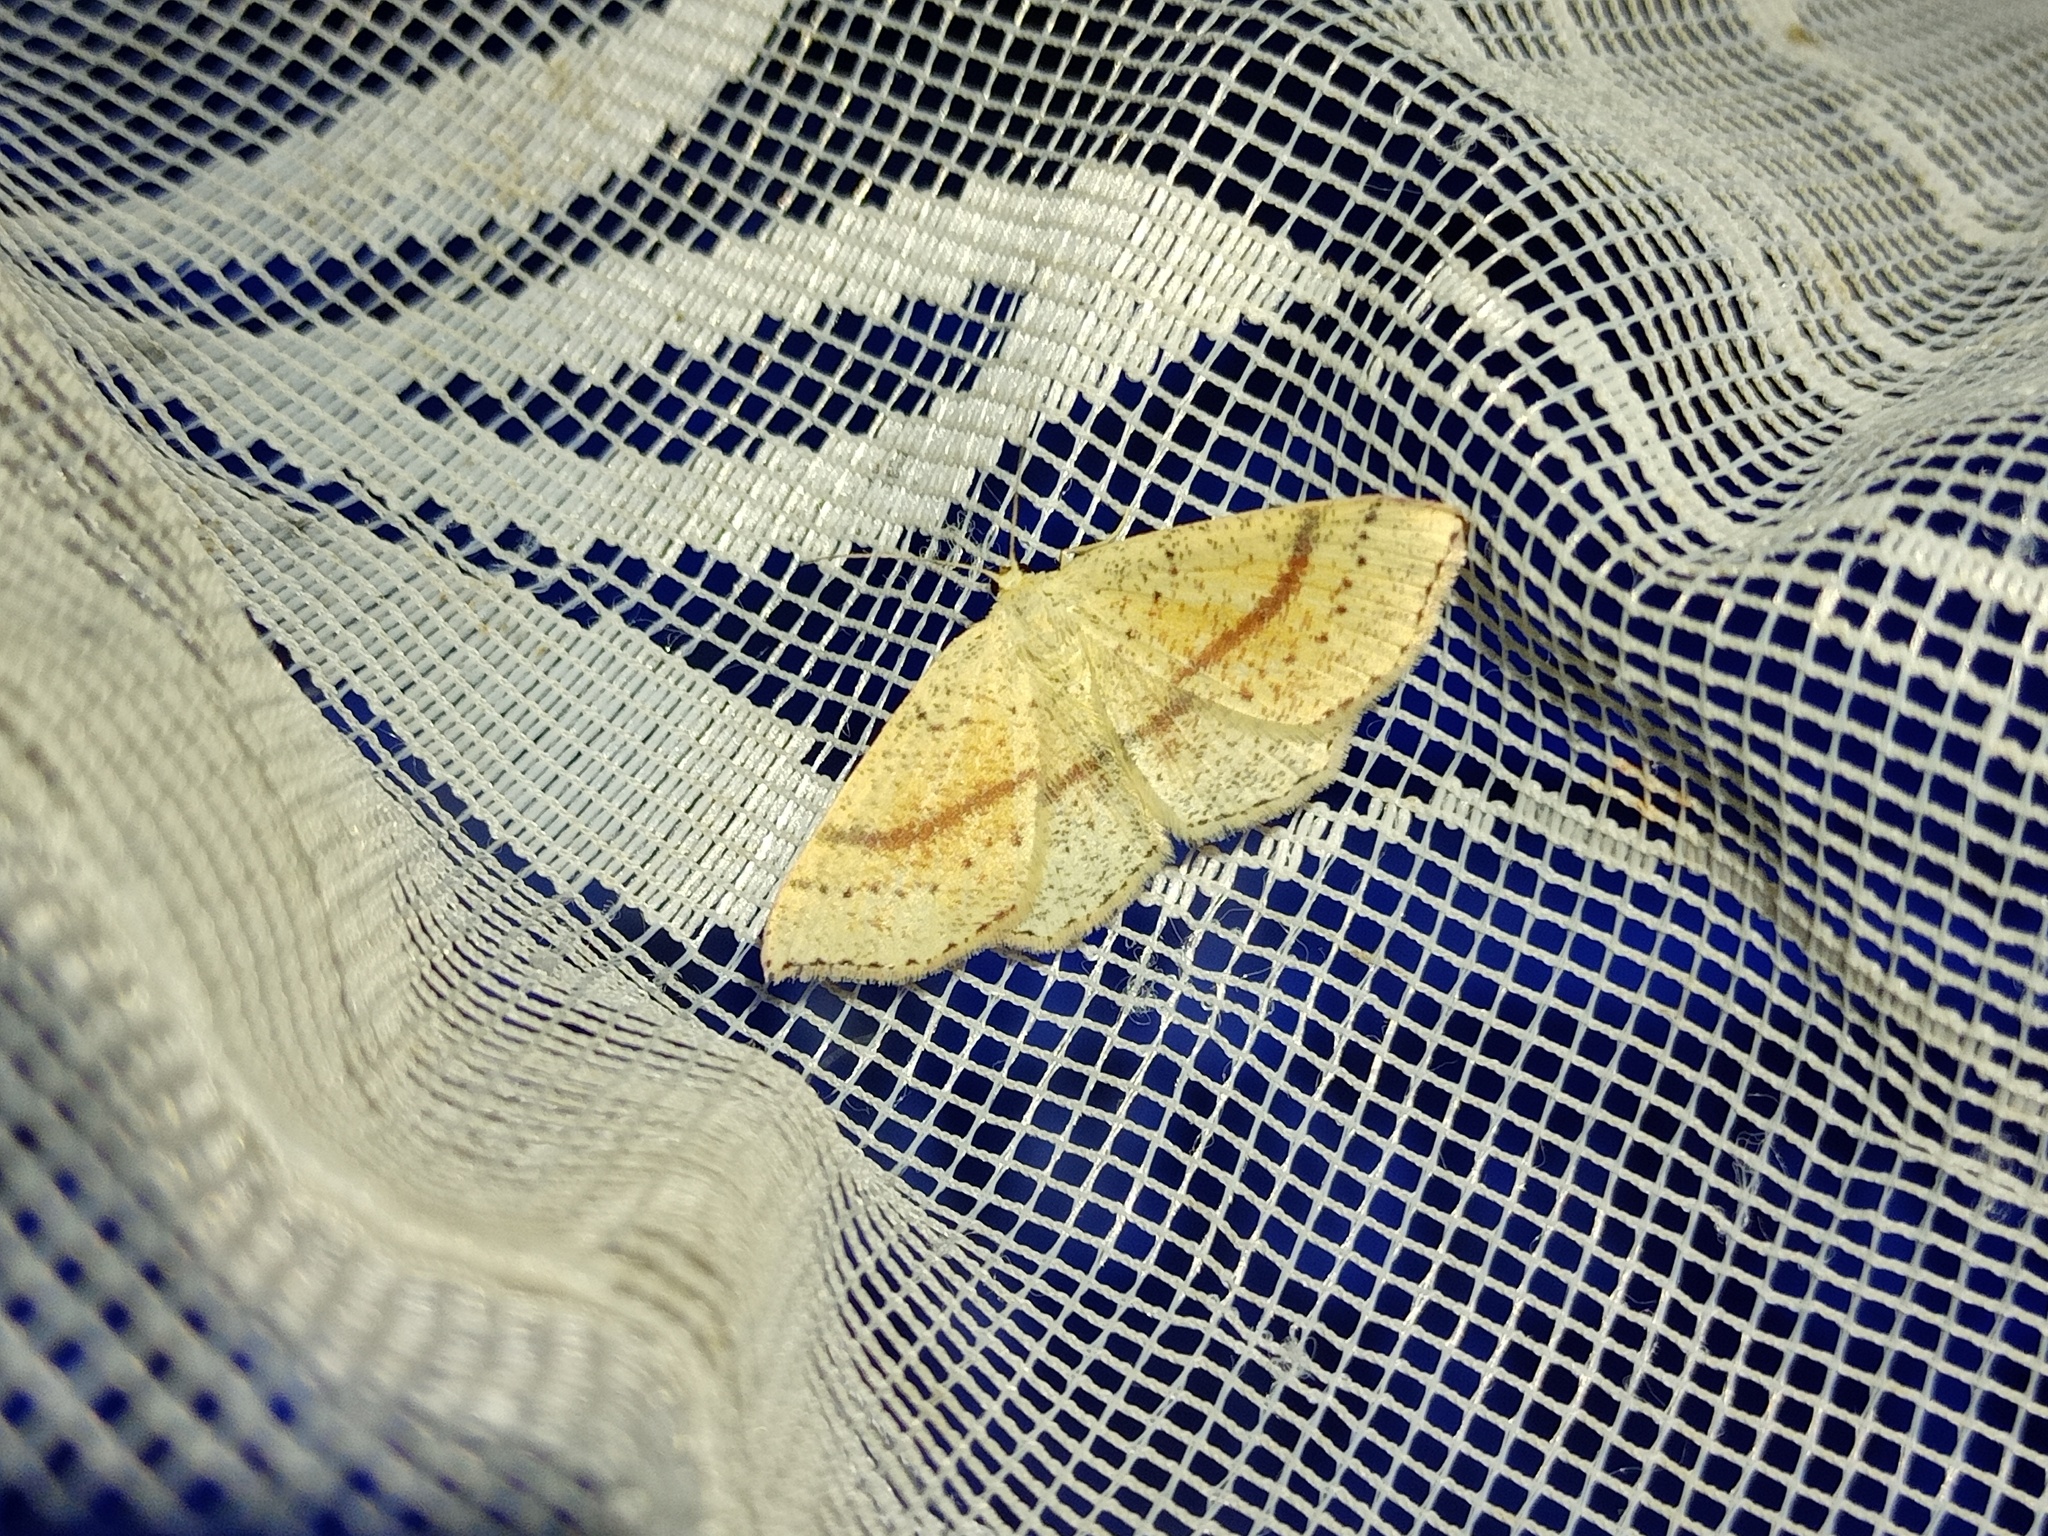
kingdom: Animalia
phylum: Arthropoda
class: Insecta
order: Lepidoptera
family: Geometridae
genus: Cyclophora
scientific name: Cyclophora punctaria
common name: Maiden's blush
